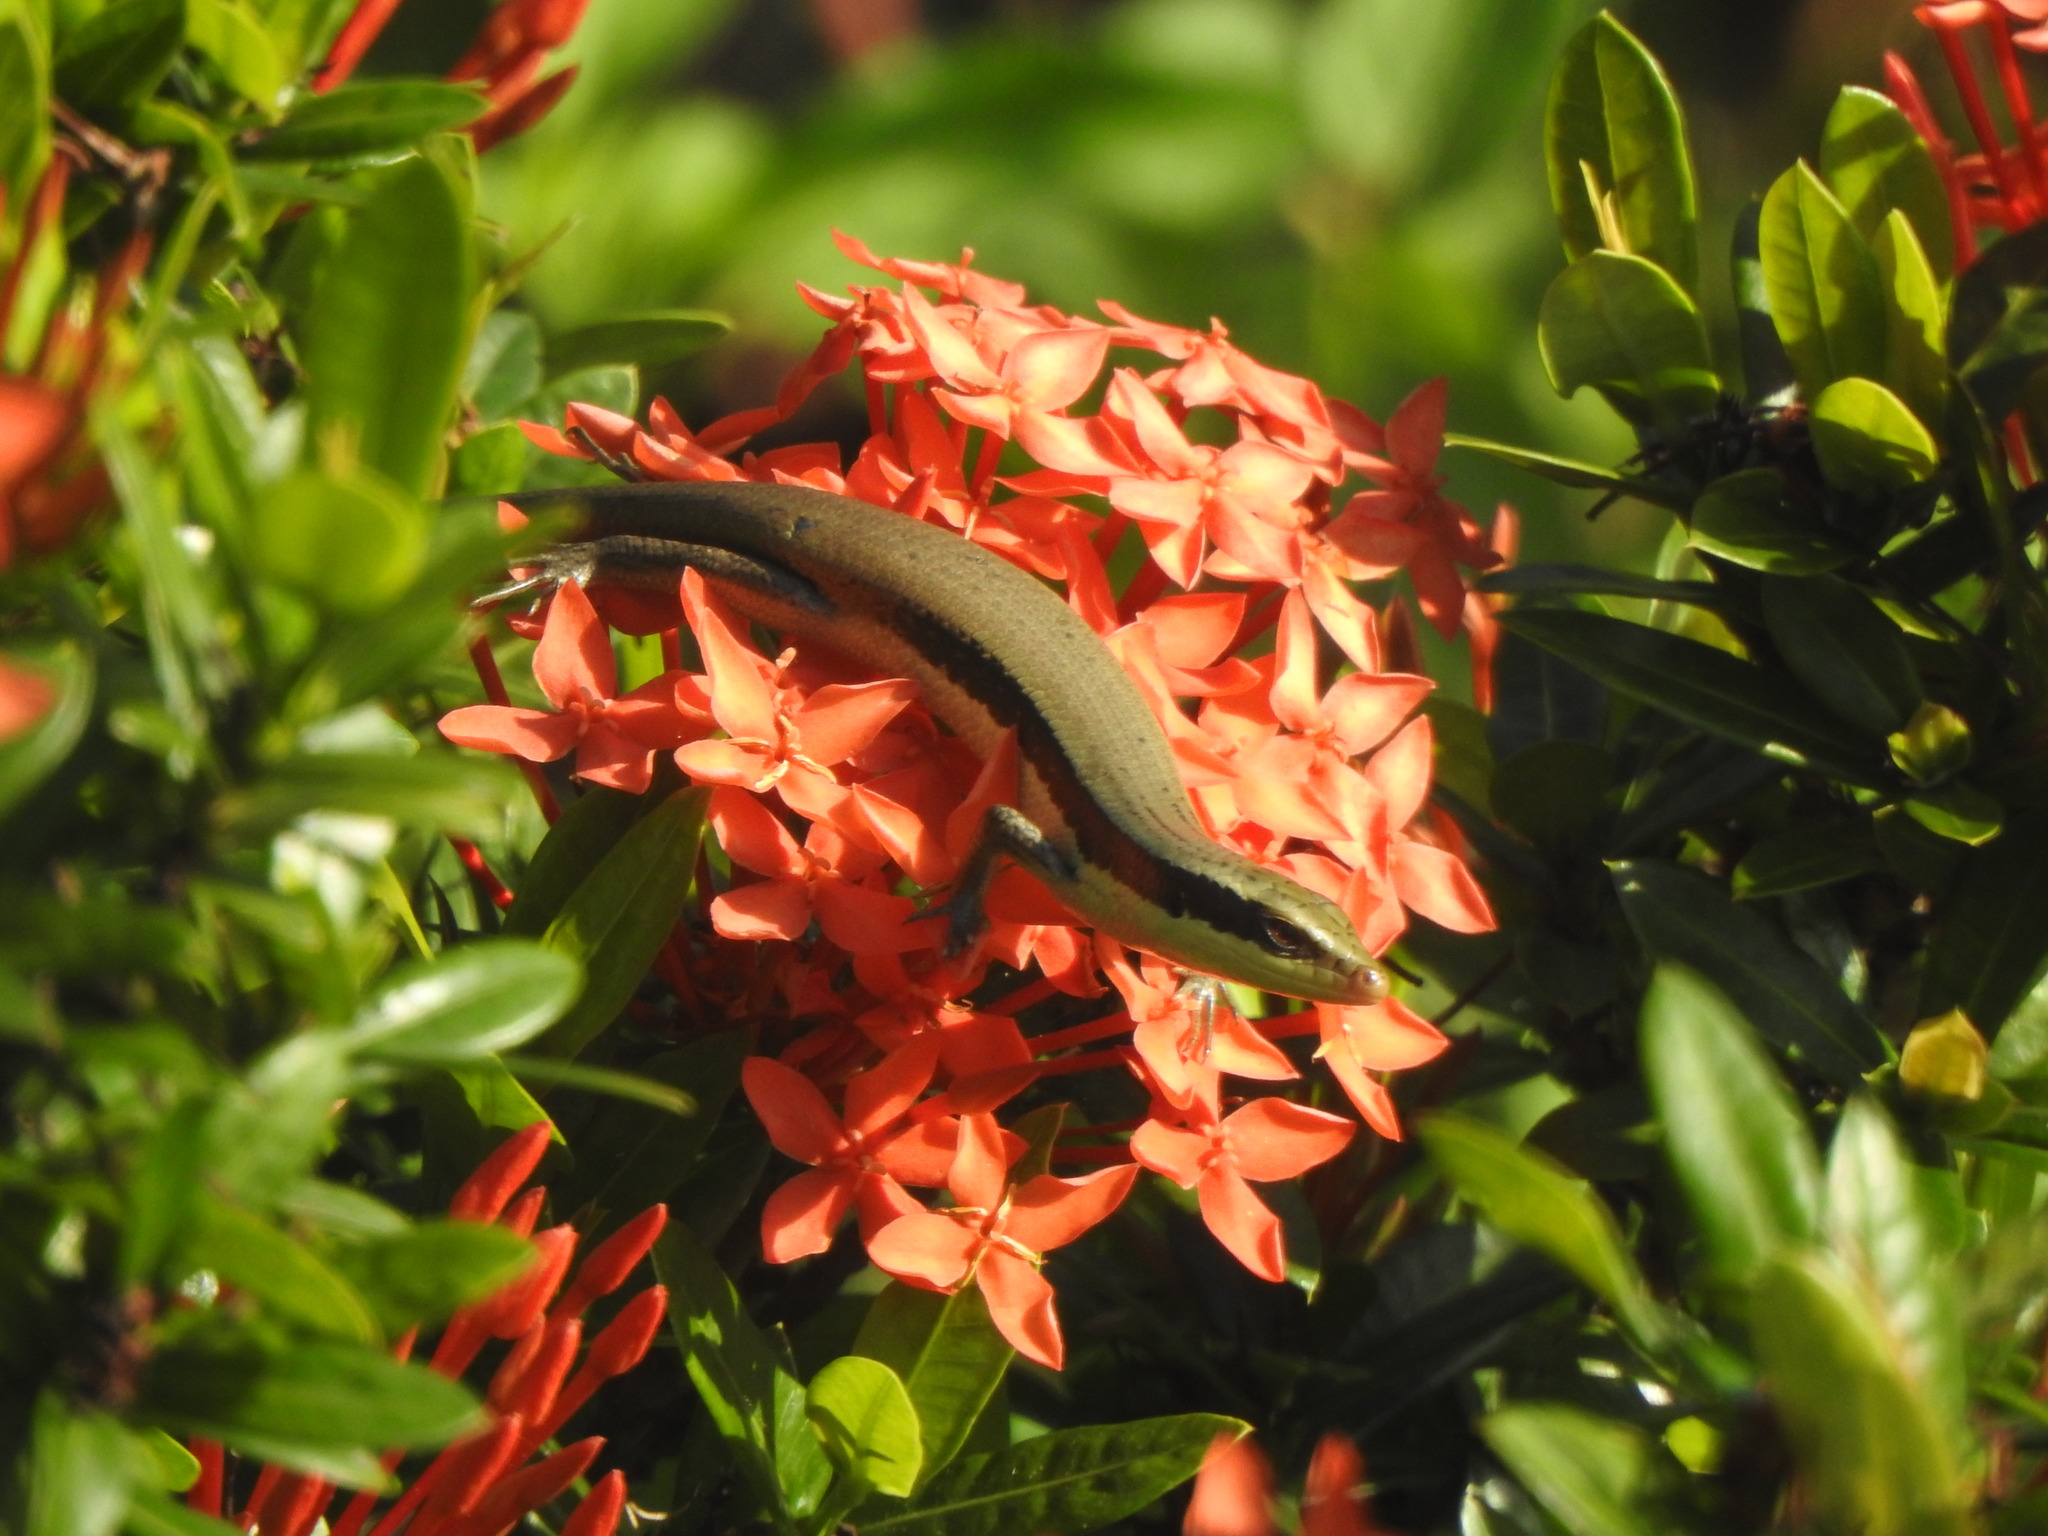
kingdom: Animalia
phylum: Chordata
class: Squamata
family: Scincidae
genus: Eutropis
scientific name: Eutropis longicaudata
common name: Long-tailed sun skink
